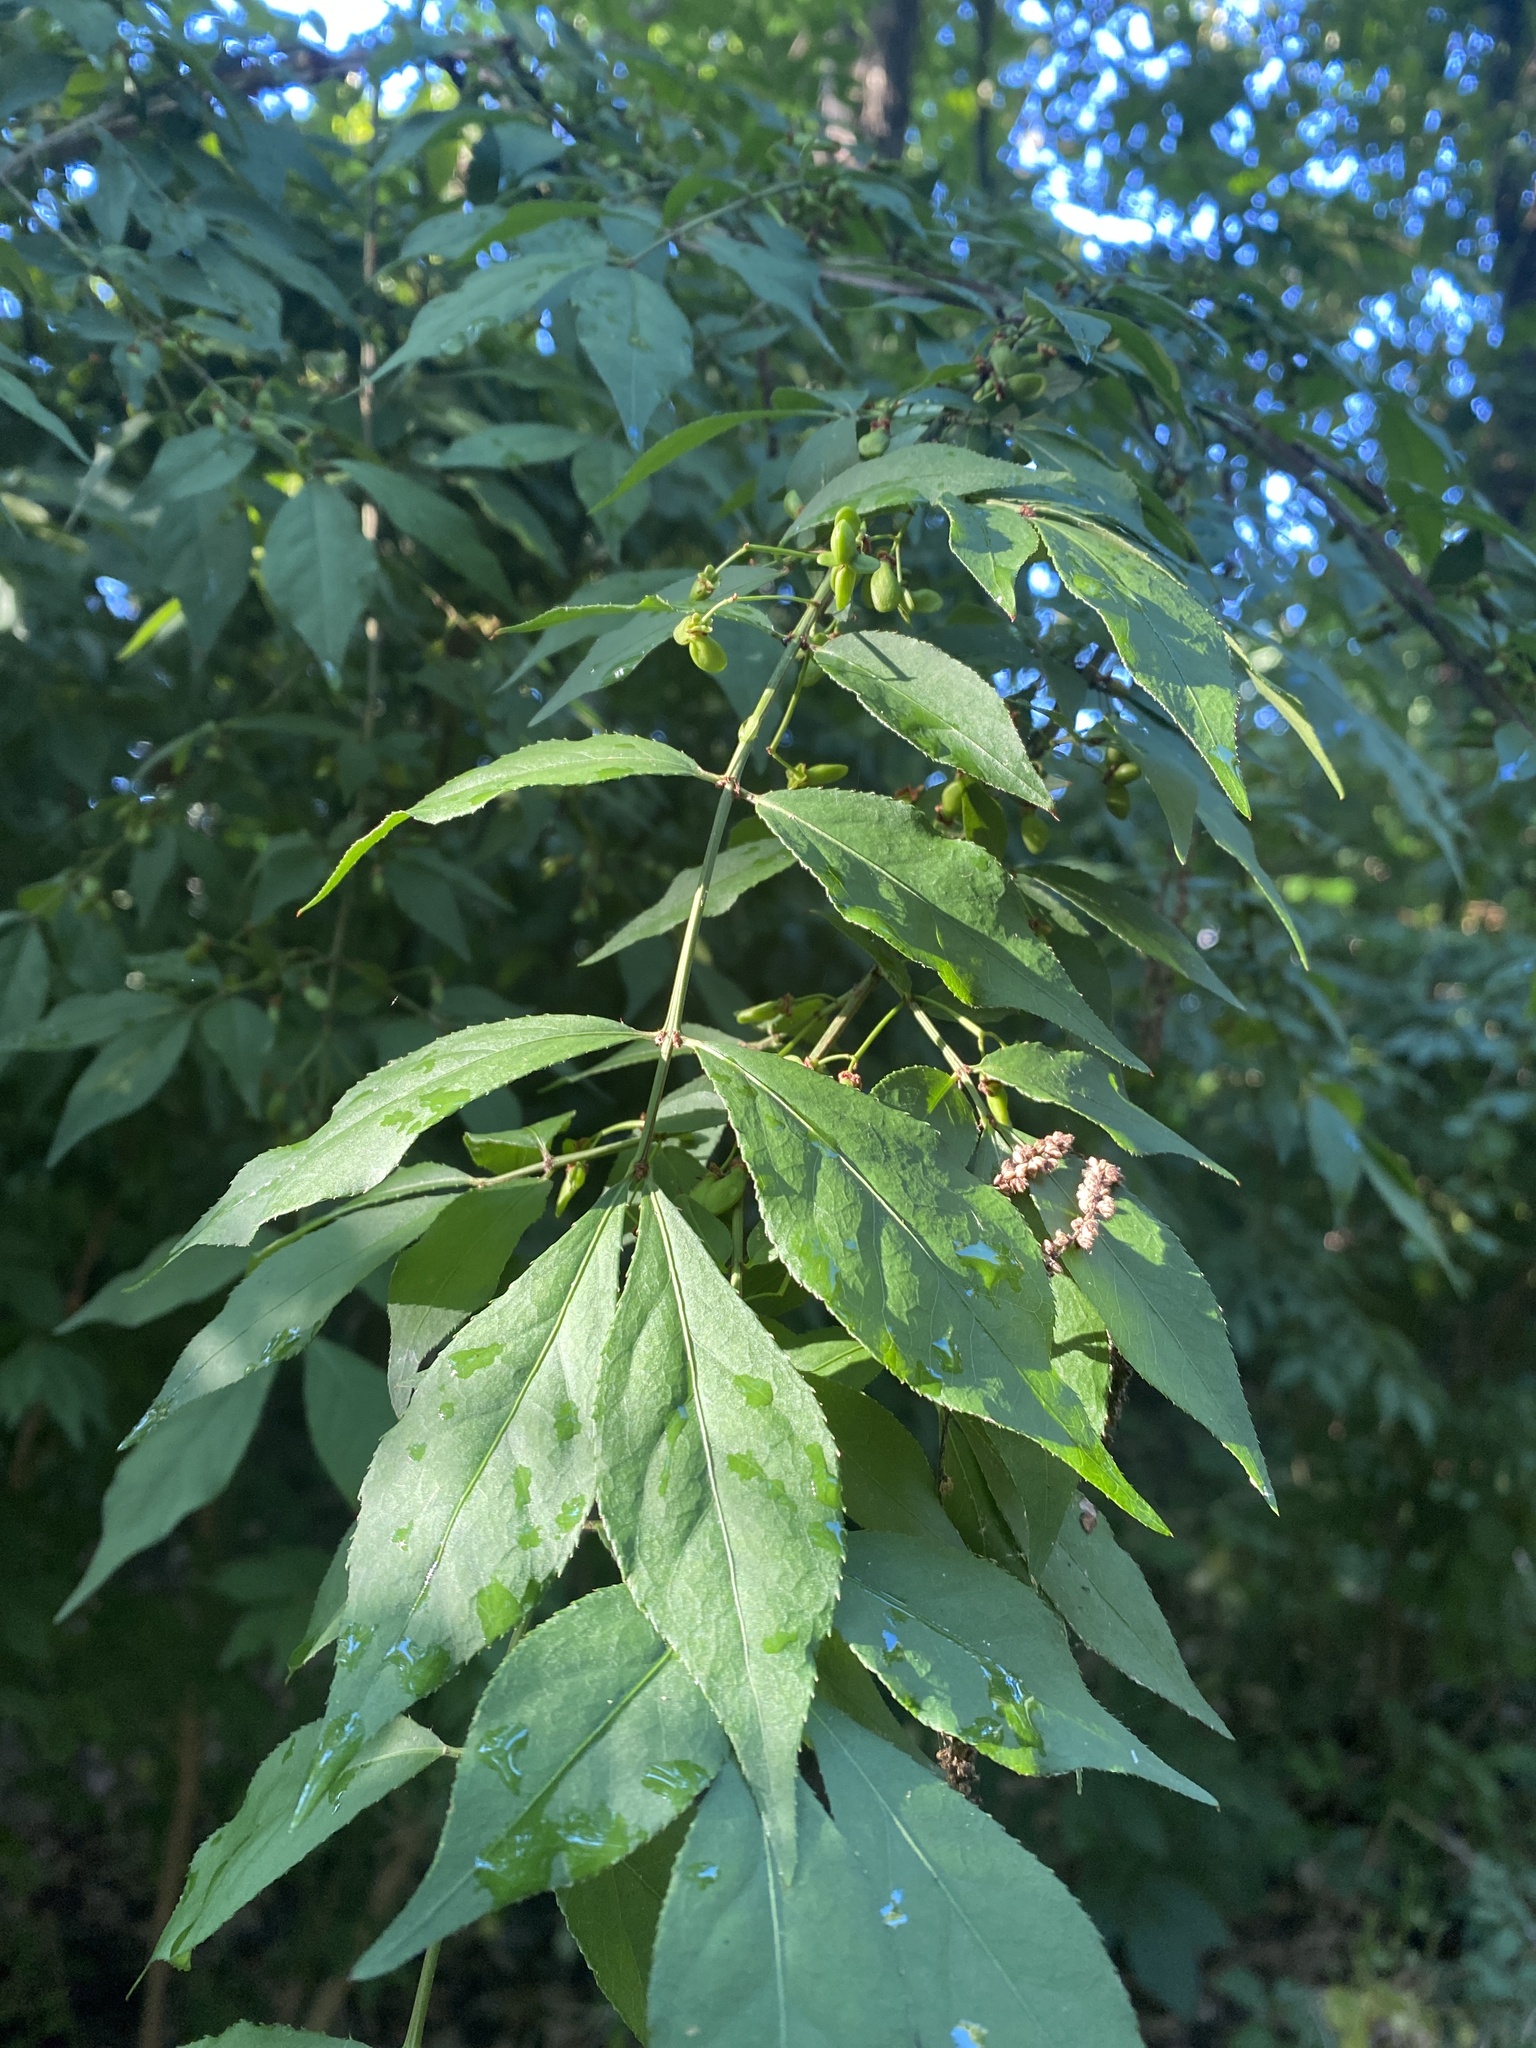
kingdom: Plantae
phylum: Tracheophyta
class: Magnoliopsida
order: Celastrales
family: Celastraceae
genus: Euonymus
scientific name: Euonymus alatus
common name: Winged euonymus
